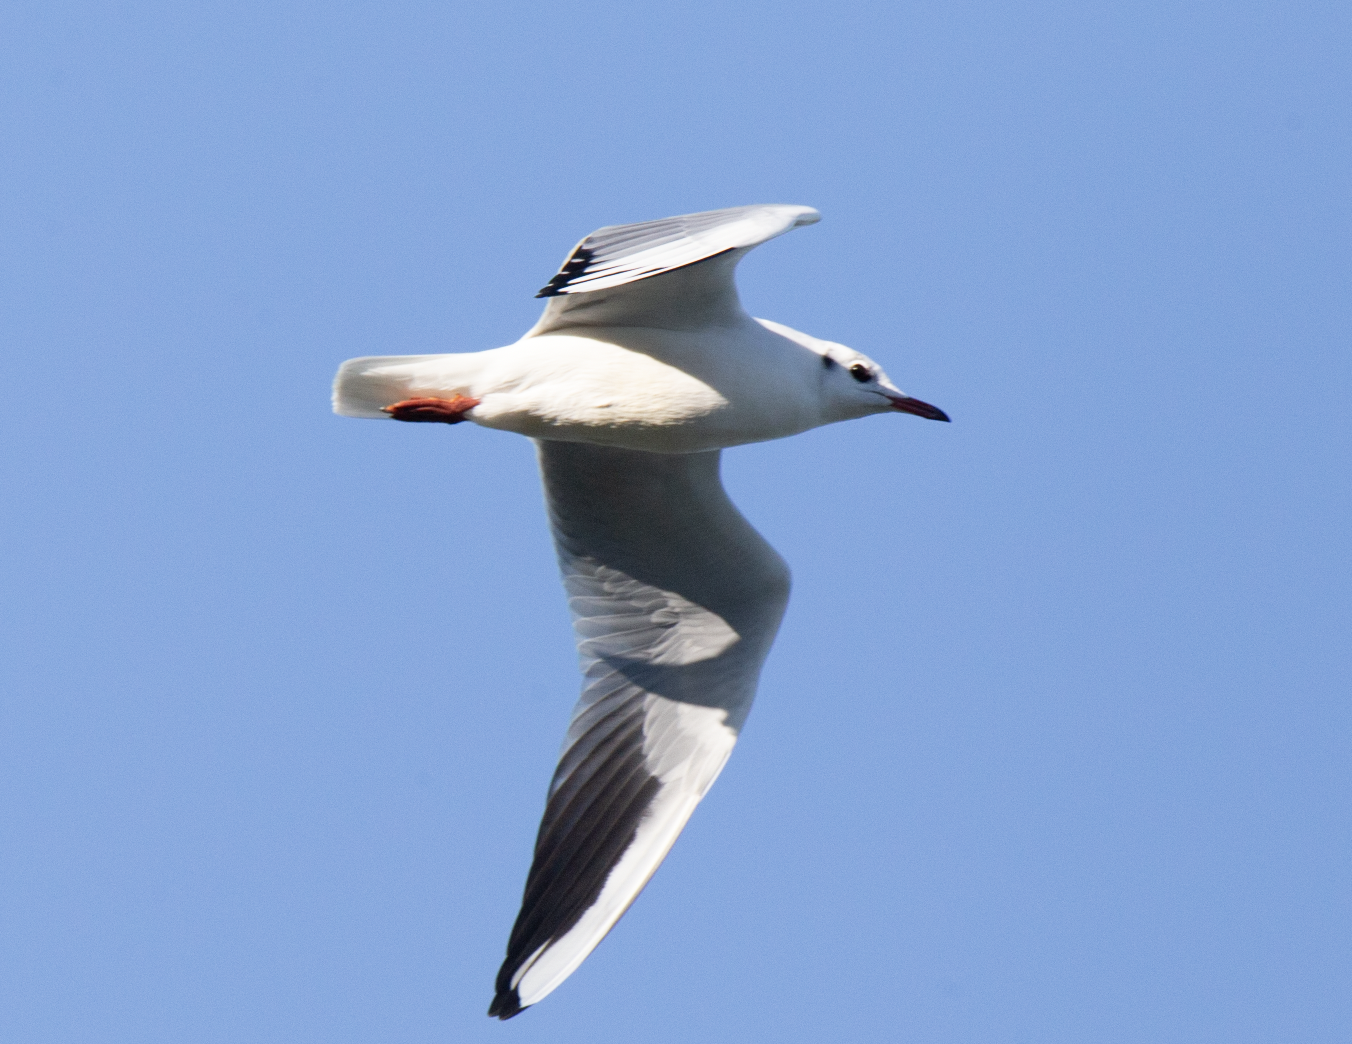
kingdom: Animalia
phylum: Chordata
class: Aves
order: Charadriiformes
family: Laridae
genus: Chroicocephalus
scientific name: Chroicocephalus ridibundus
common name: Black-headed gull
